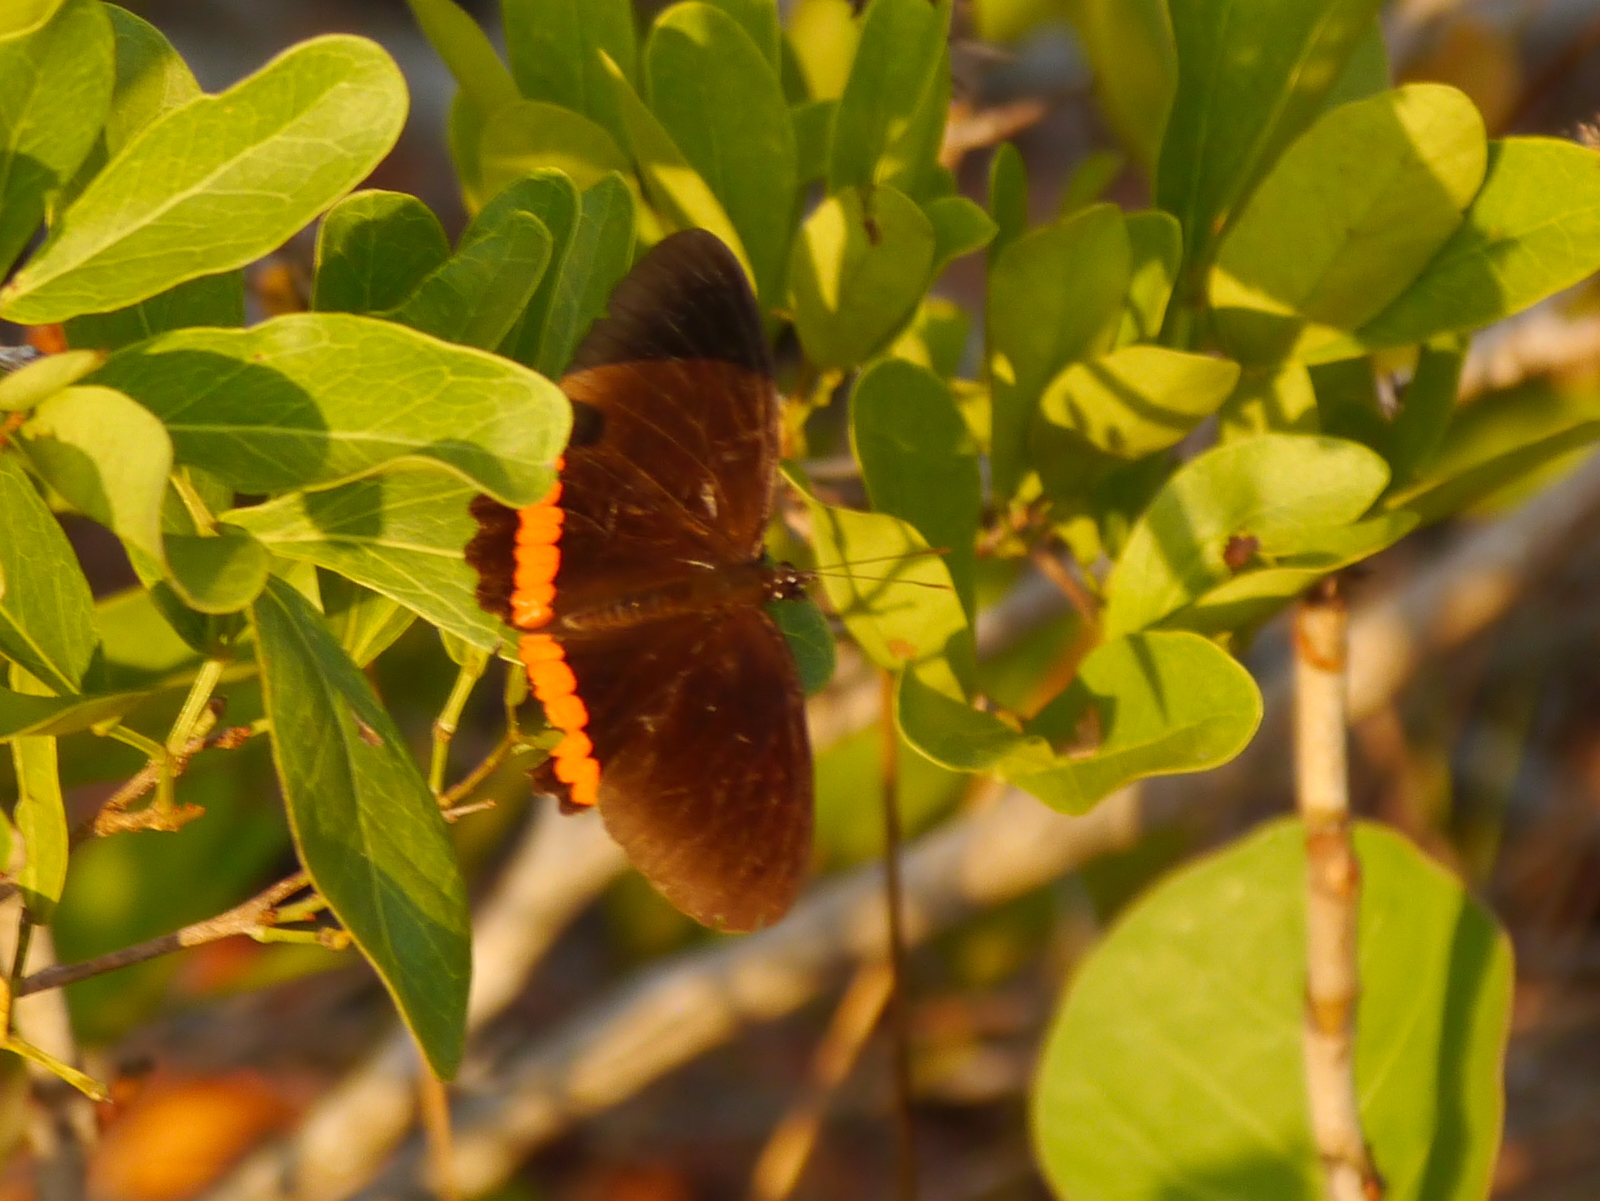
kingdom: Animalia
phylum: Arthropoda
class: Insecta
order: Lepidoptera
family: Nymphalidae
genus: Biblis
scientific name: Biblis aganisa
